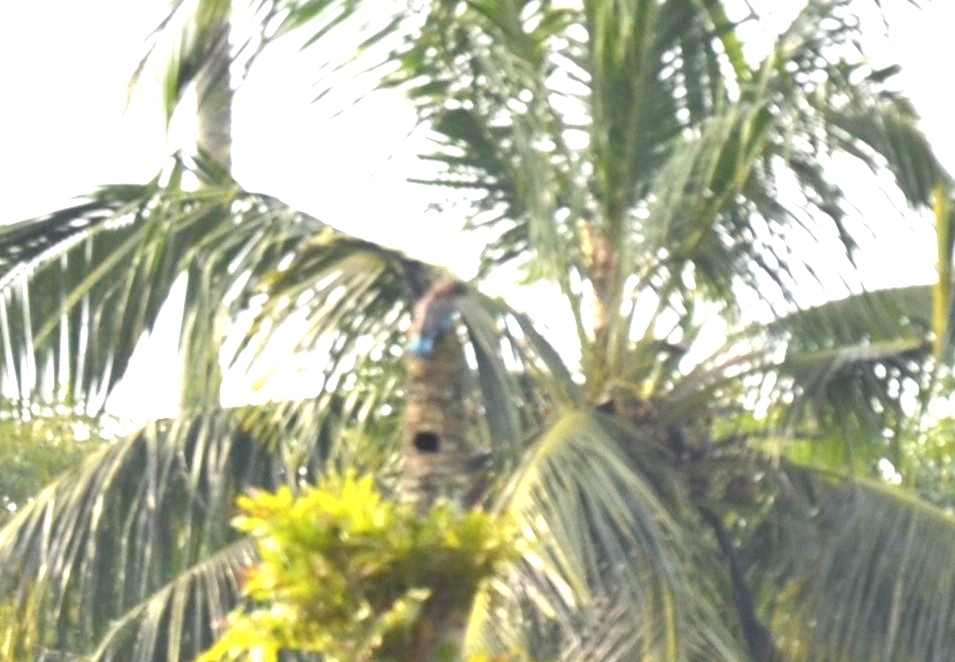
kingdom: Animalia
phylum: Chordata
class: Aves
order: Coraciiformes
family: Coraciidae
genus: Coracias
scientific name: Coracias benghalensis
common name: Indian roller
